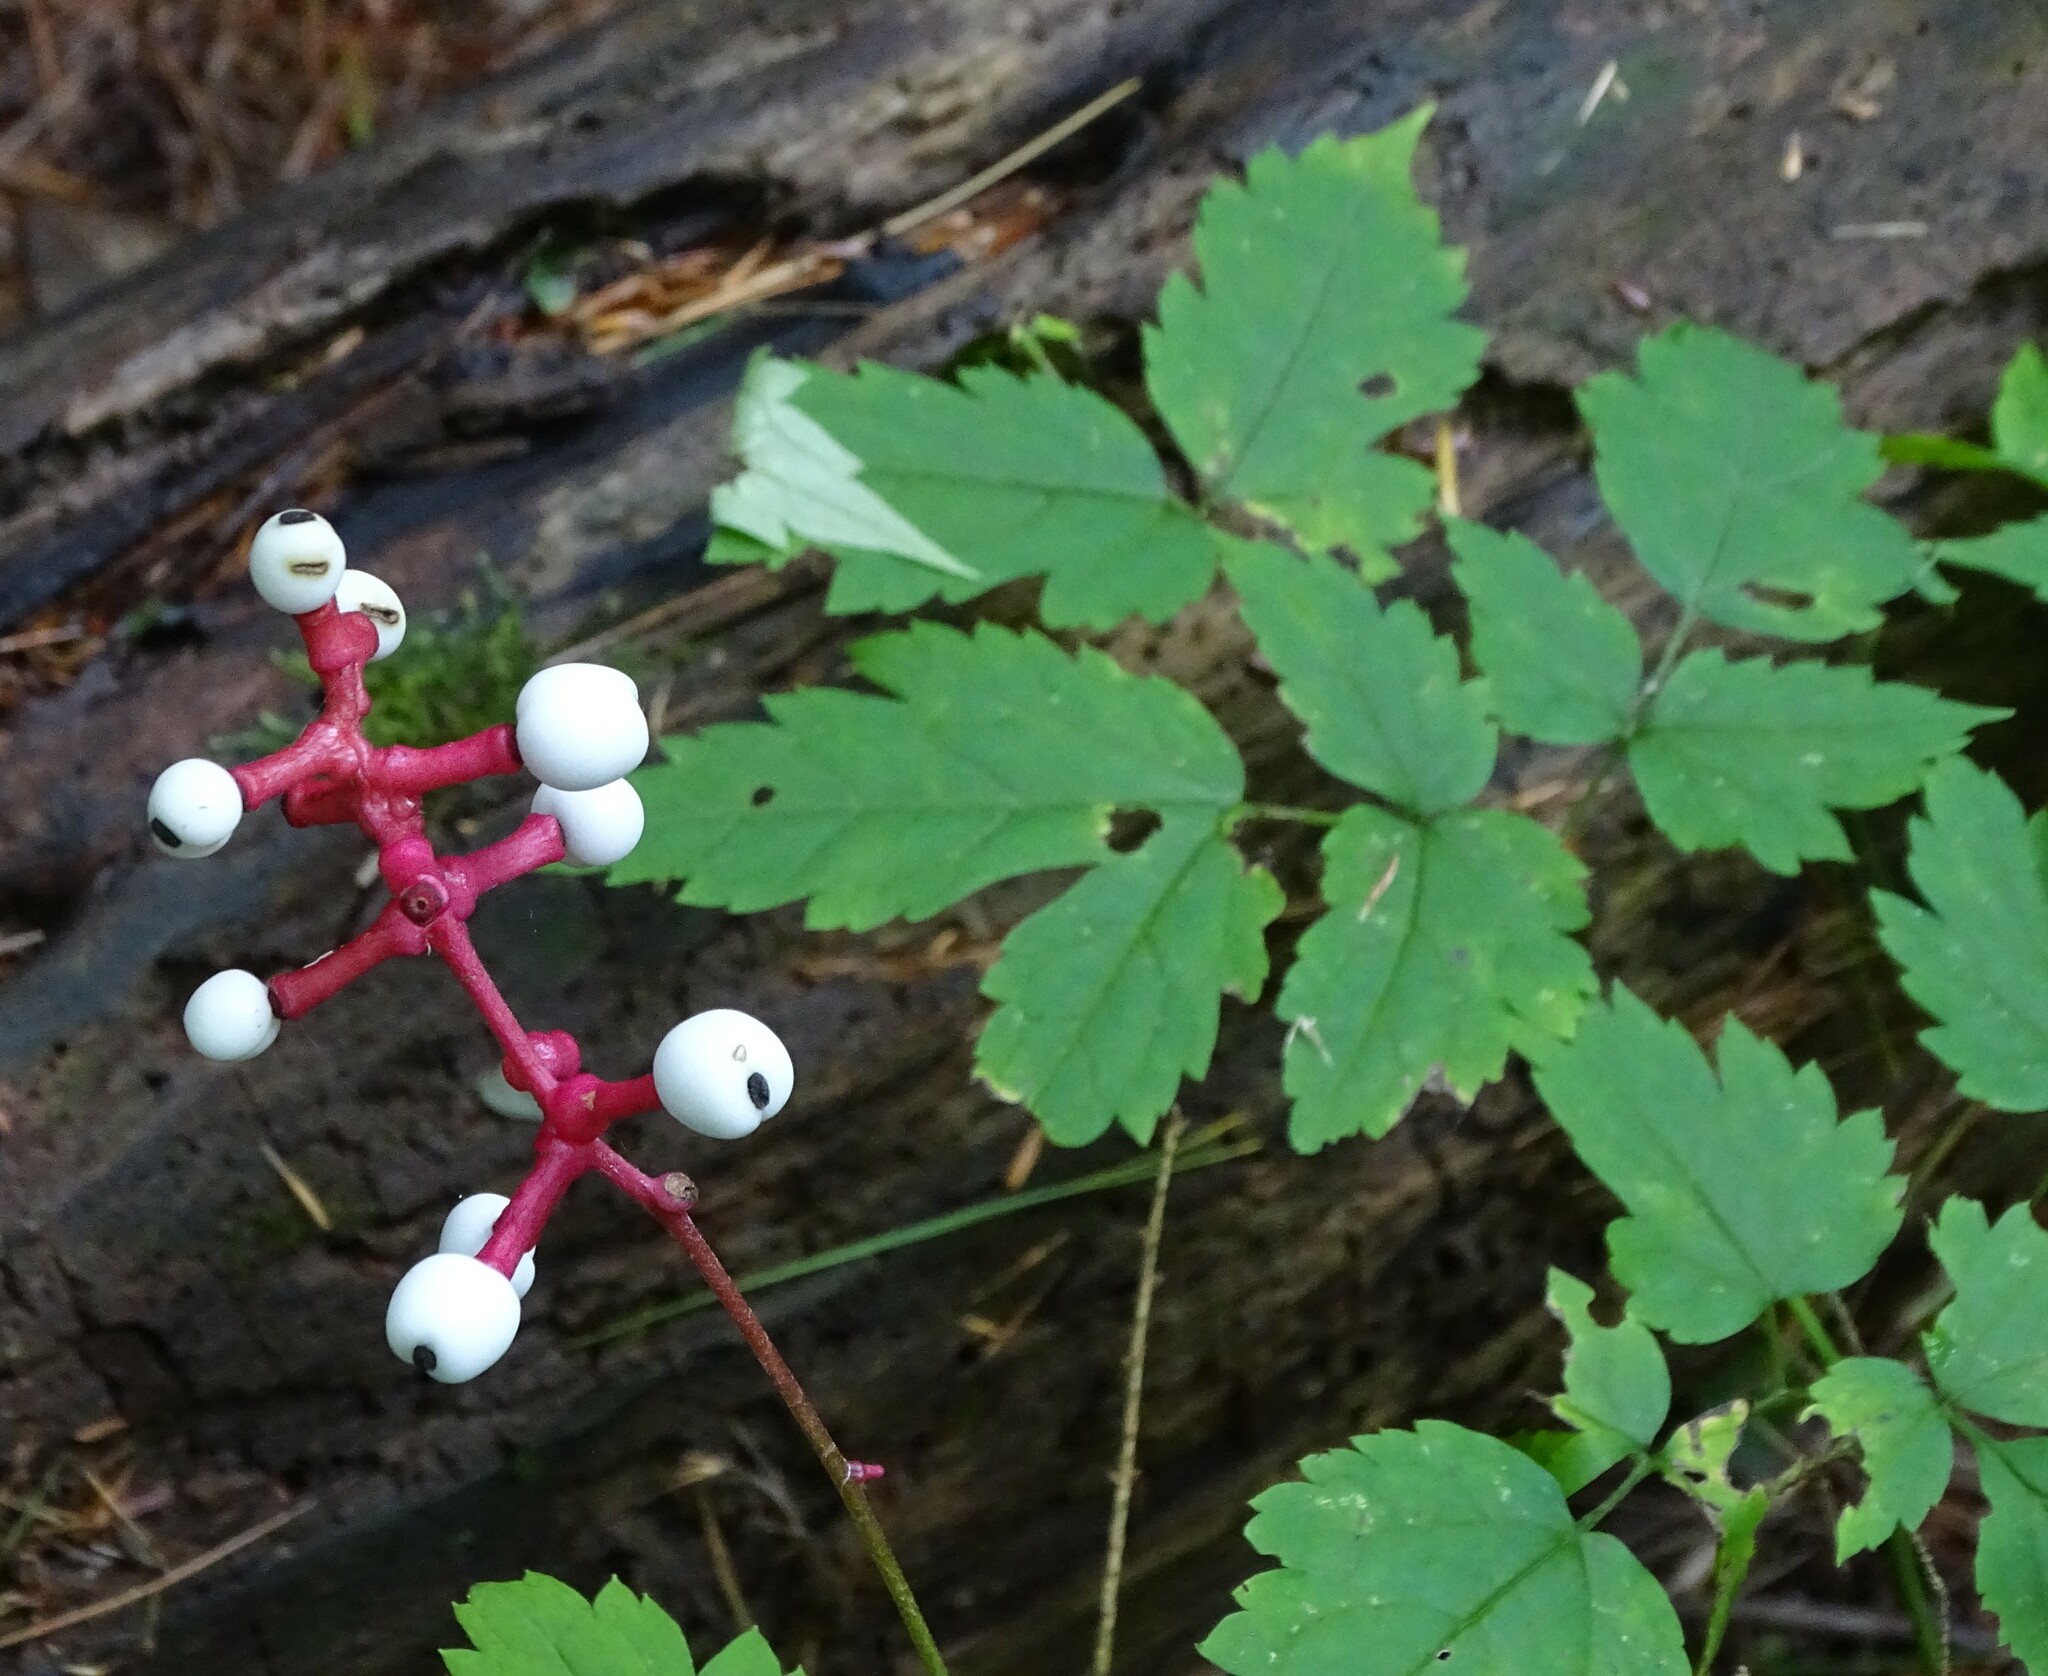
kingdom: Plantae
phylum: Tracheophyta
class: Magnoliopsida
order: Ranunculales
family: Ranunculaceae
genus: Actaea
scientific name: Actaea pachypoda
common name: Doll's-eyes
